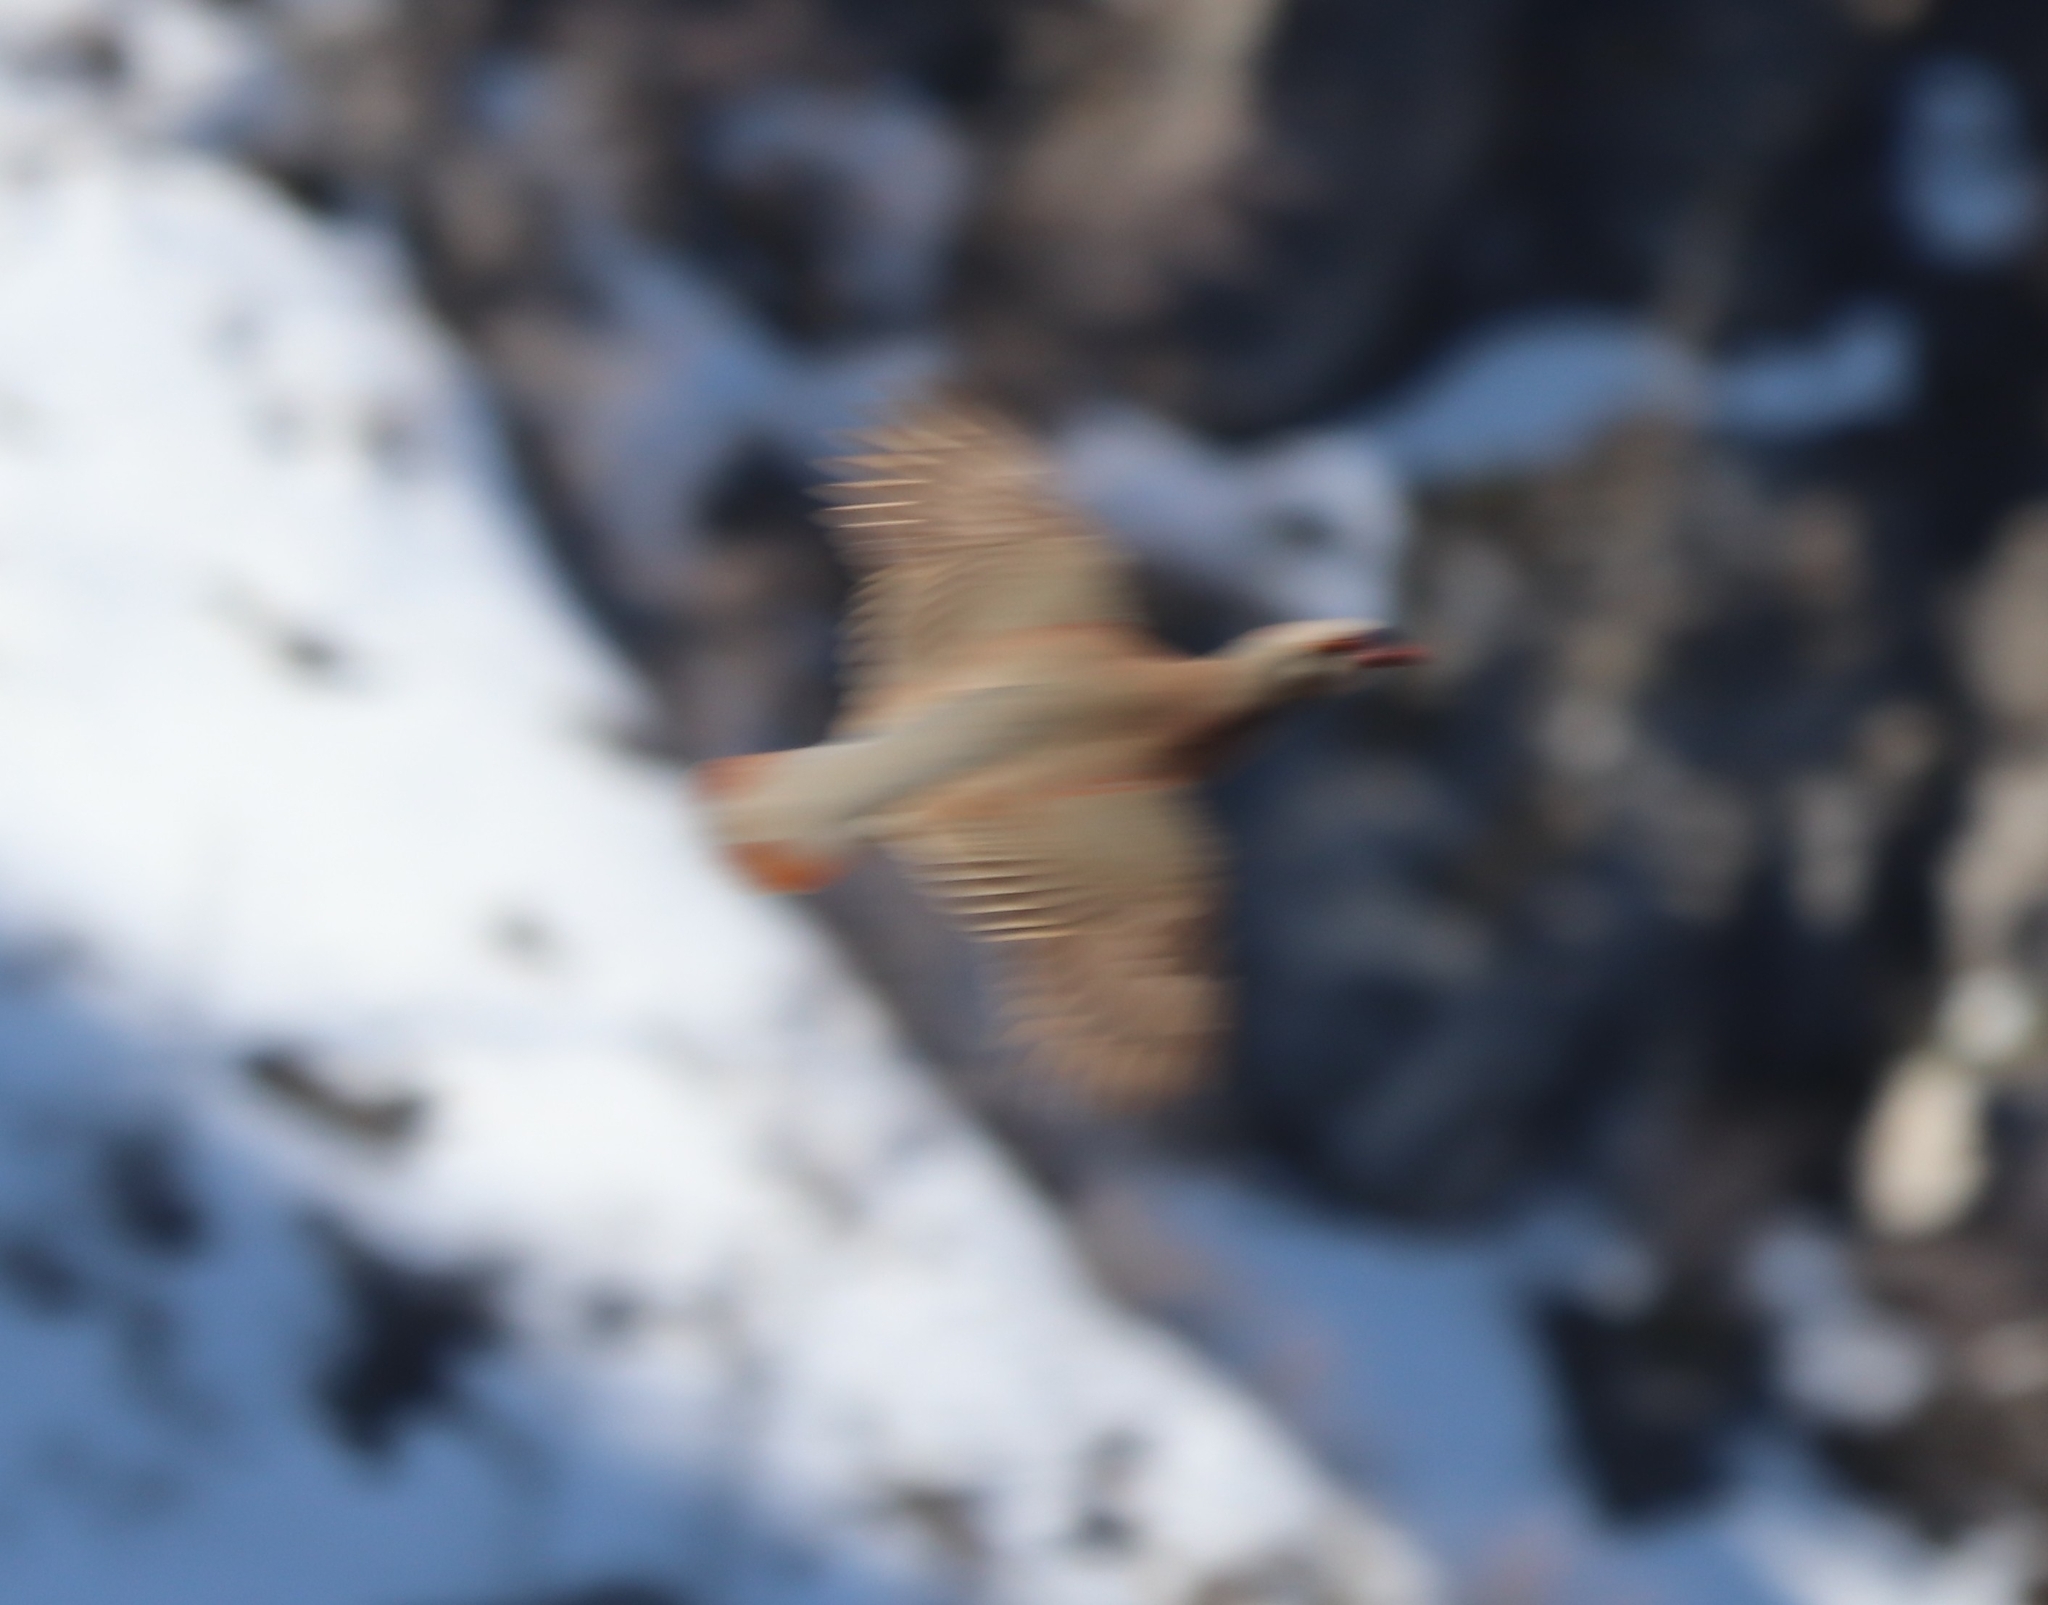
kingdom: Animalia
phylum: Chordata
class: Aves
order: Galliformes
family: Phasianidae
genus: Alectoris
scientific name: Alectoris chukar
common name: Chukar
